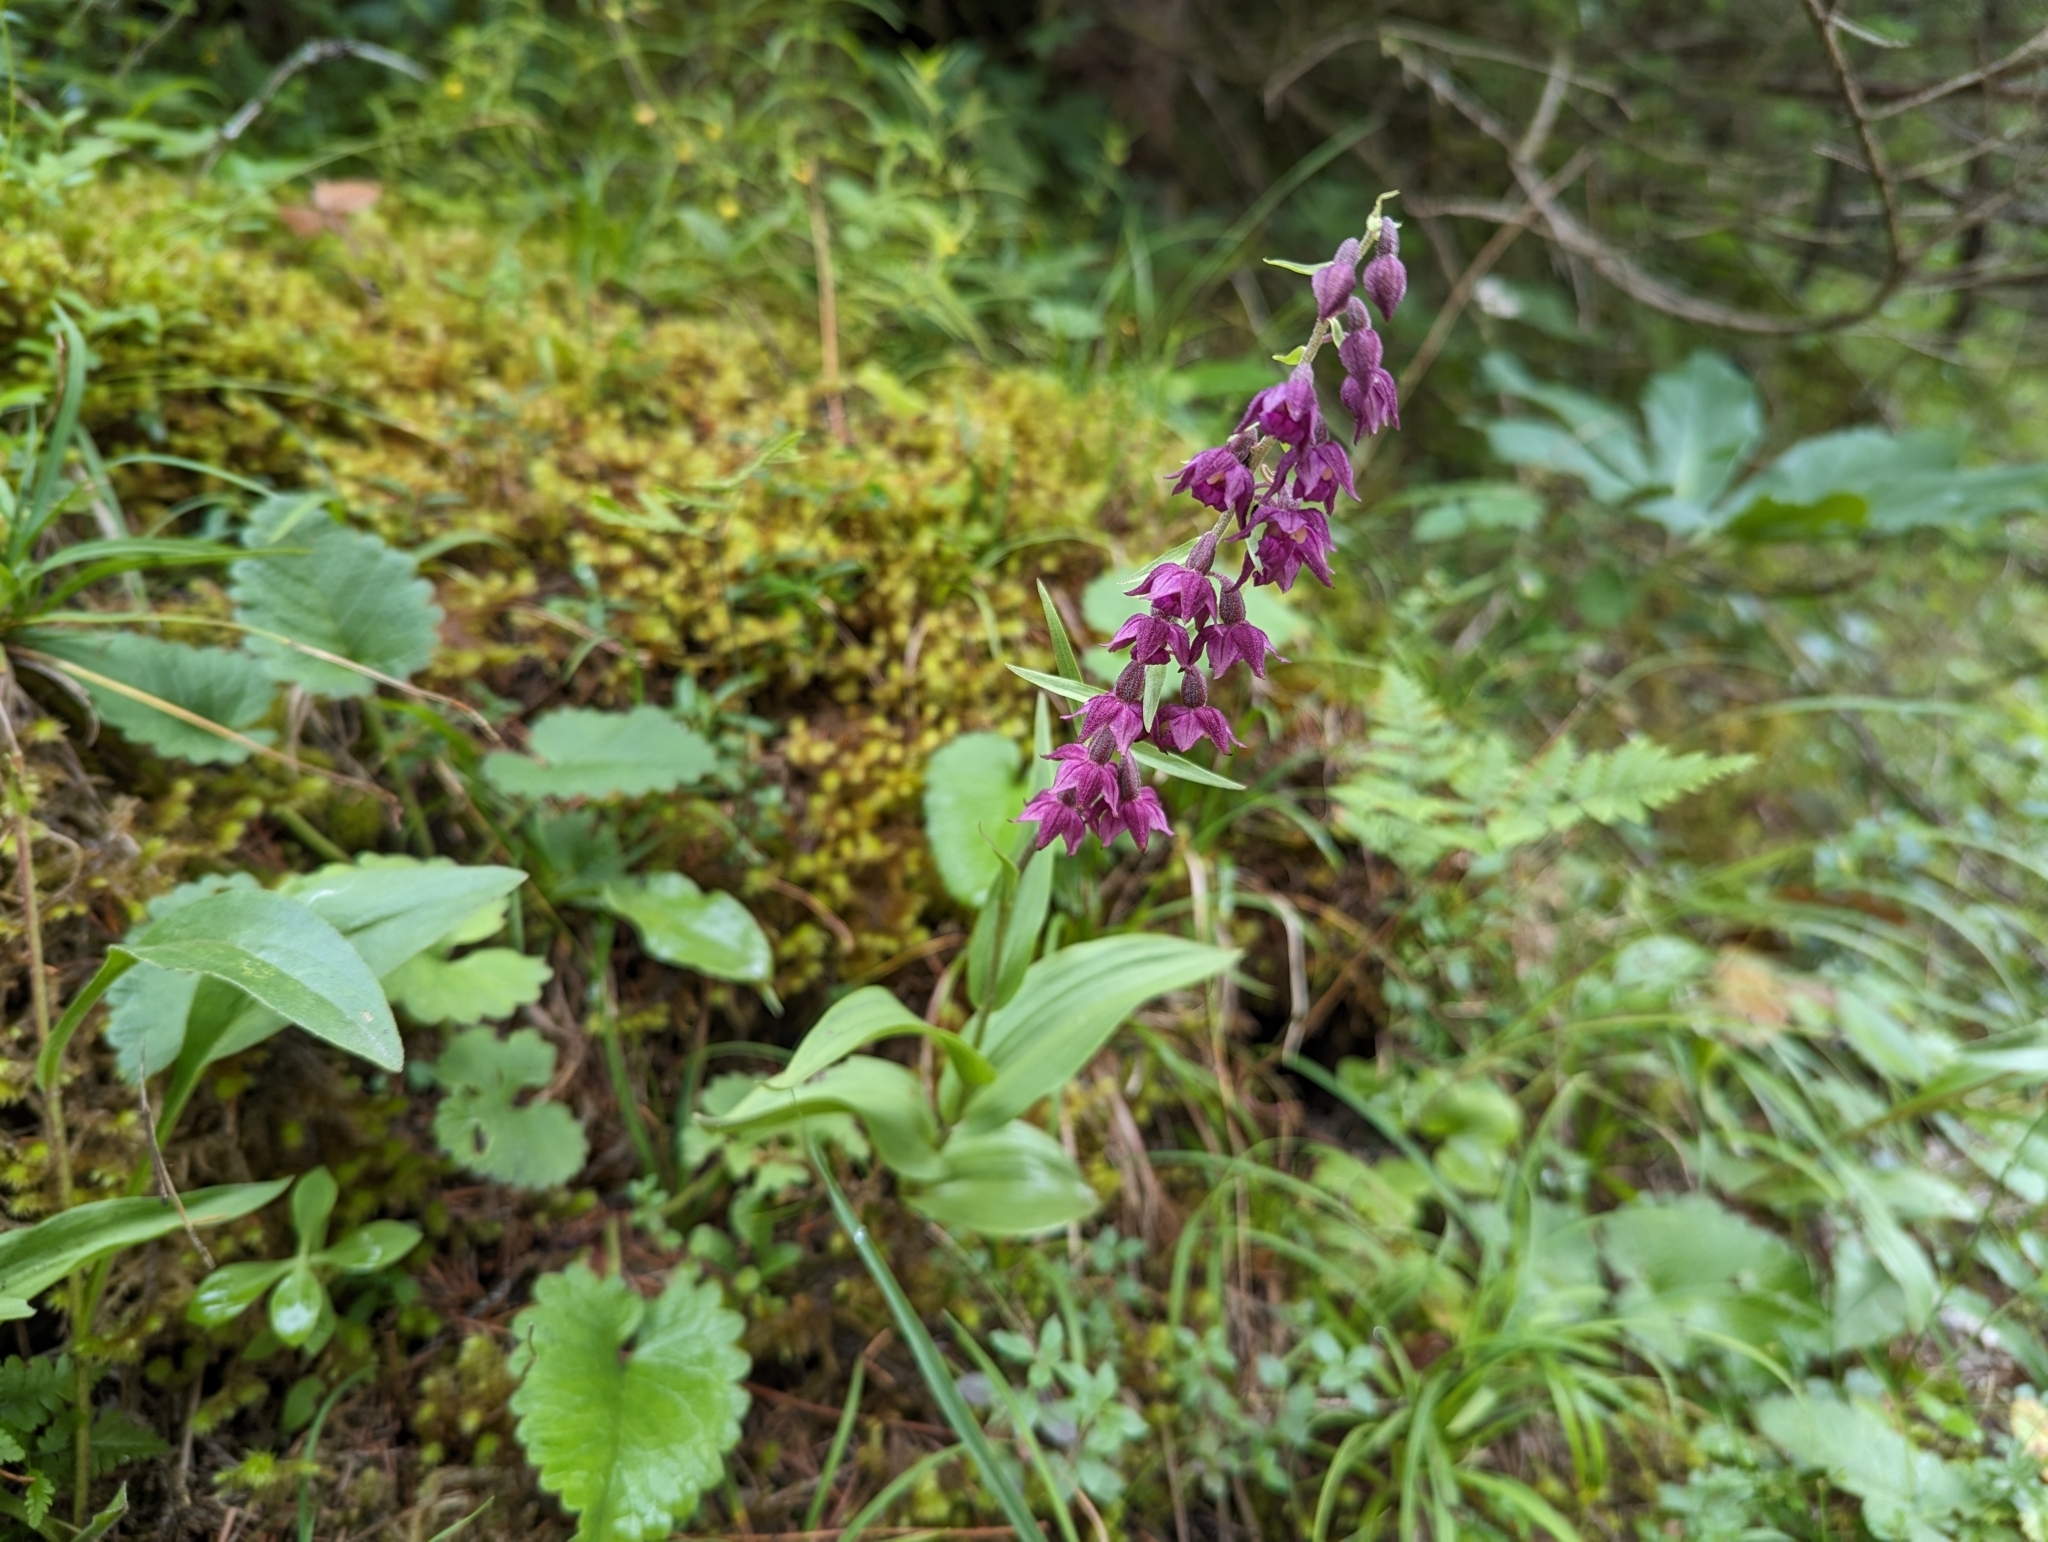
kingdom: Plantae
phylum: Tracheophyta
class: Liliopsida
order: Asparagales
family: Orchidaceae
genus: Epipactis
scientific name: Epipactis atrorubens
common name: Dark-red helleborine
